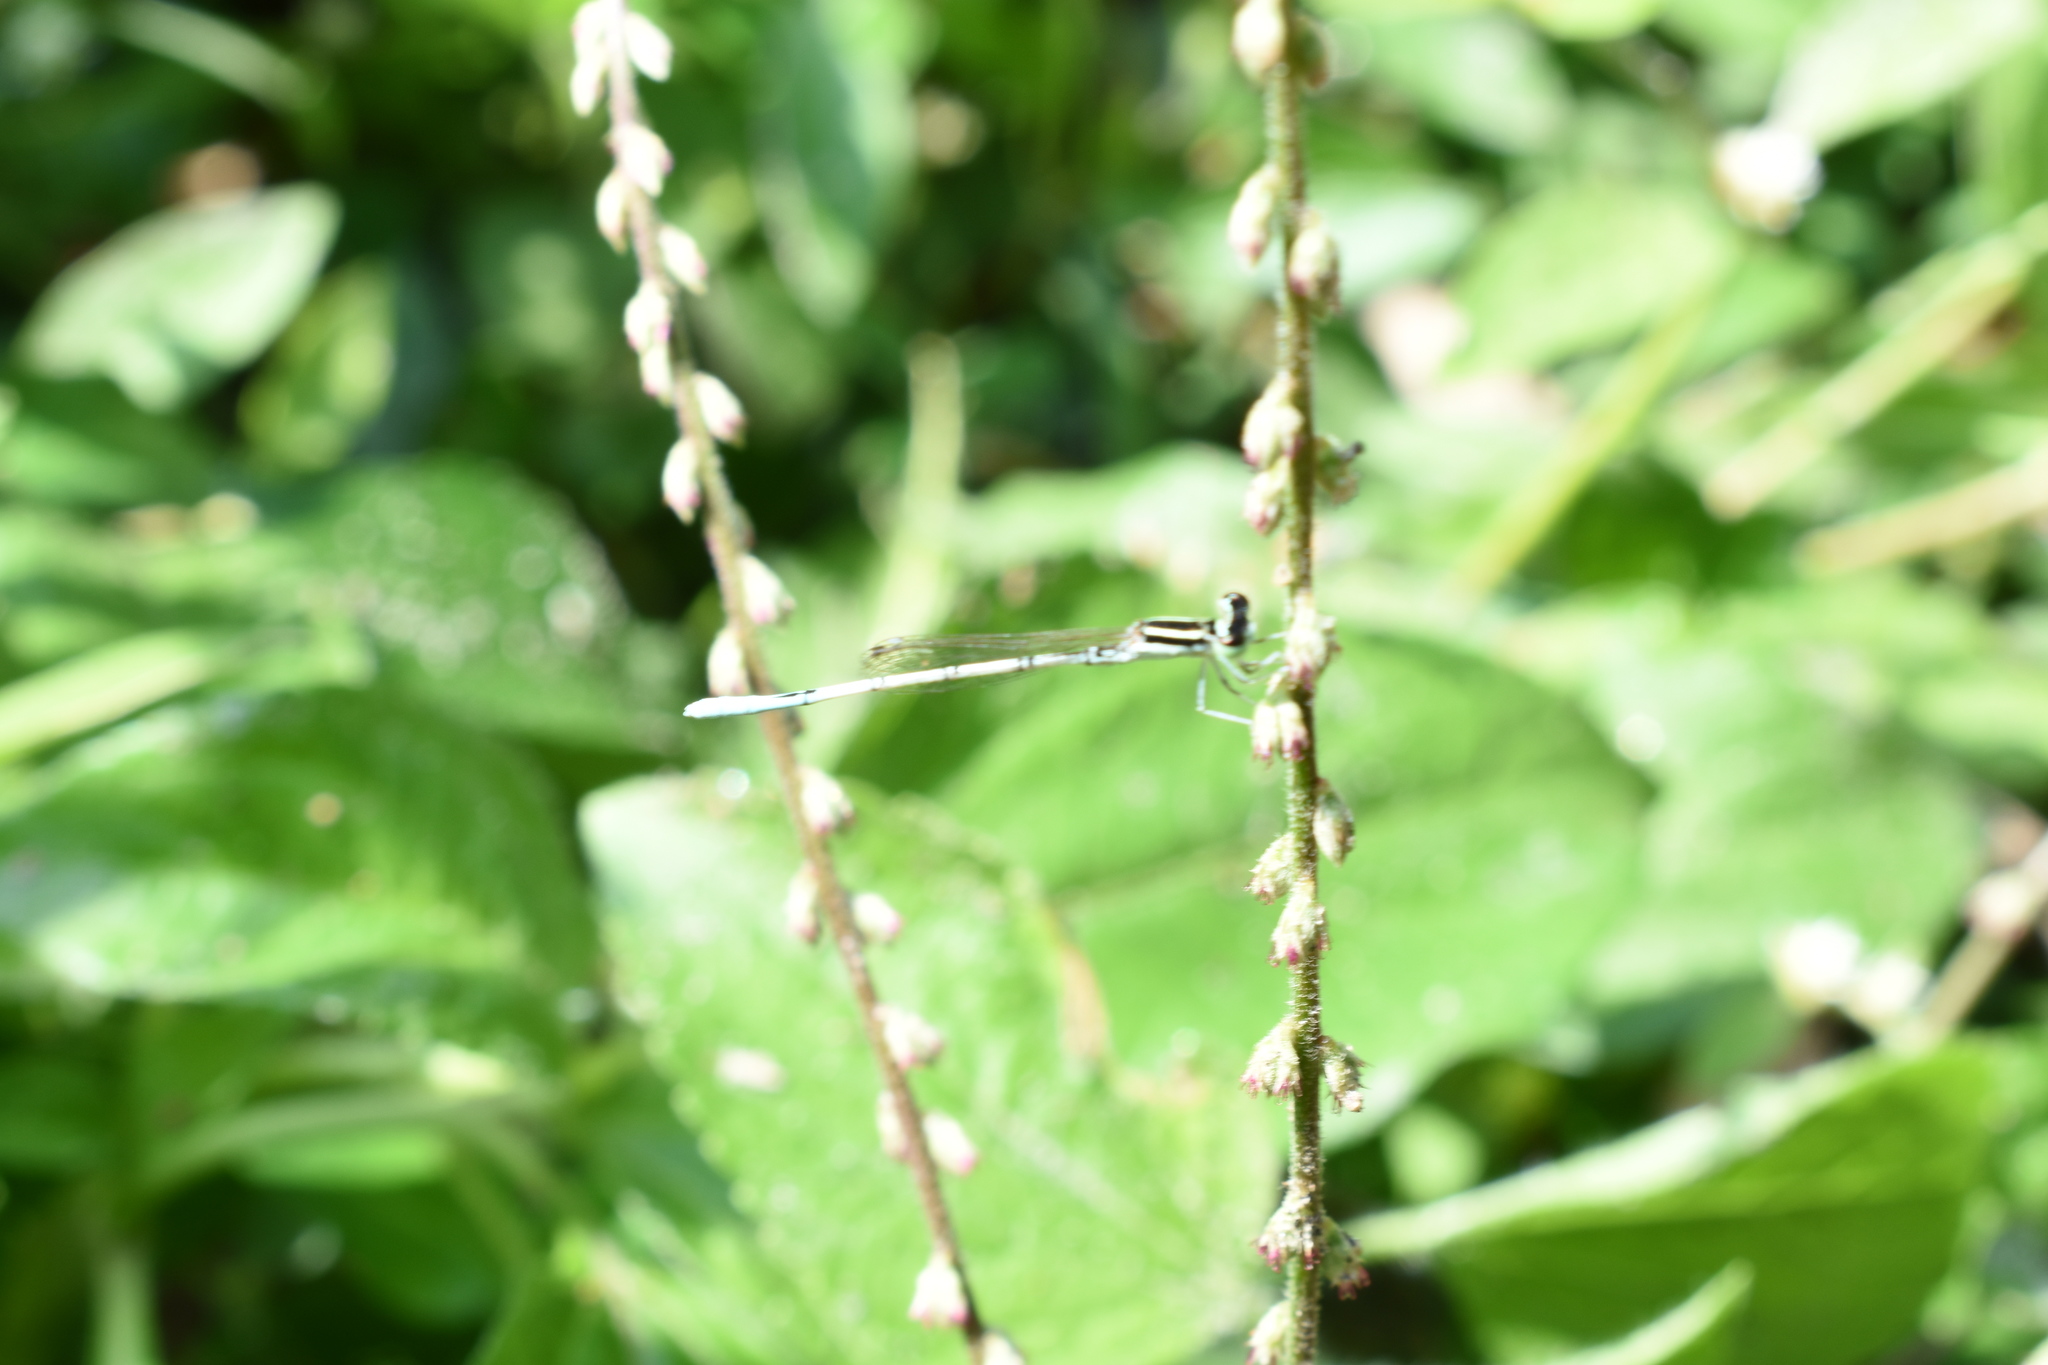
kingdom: Animalia
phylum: Arthropoda
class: Insecta
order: Odonata
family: Coenagrionidae
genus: Agriocnemis
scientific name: Agriocnemis pieris
